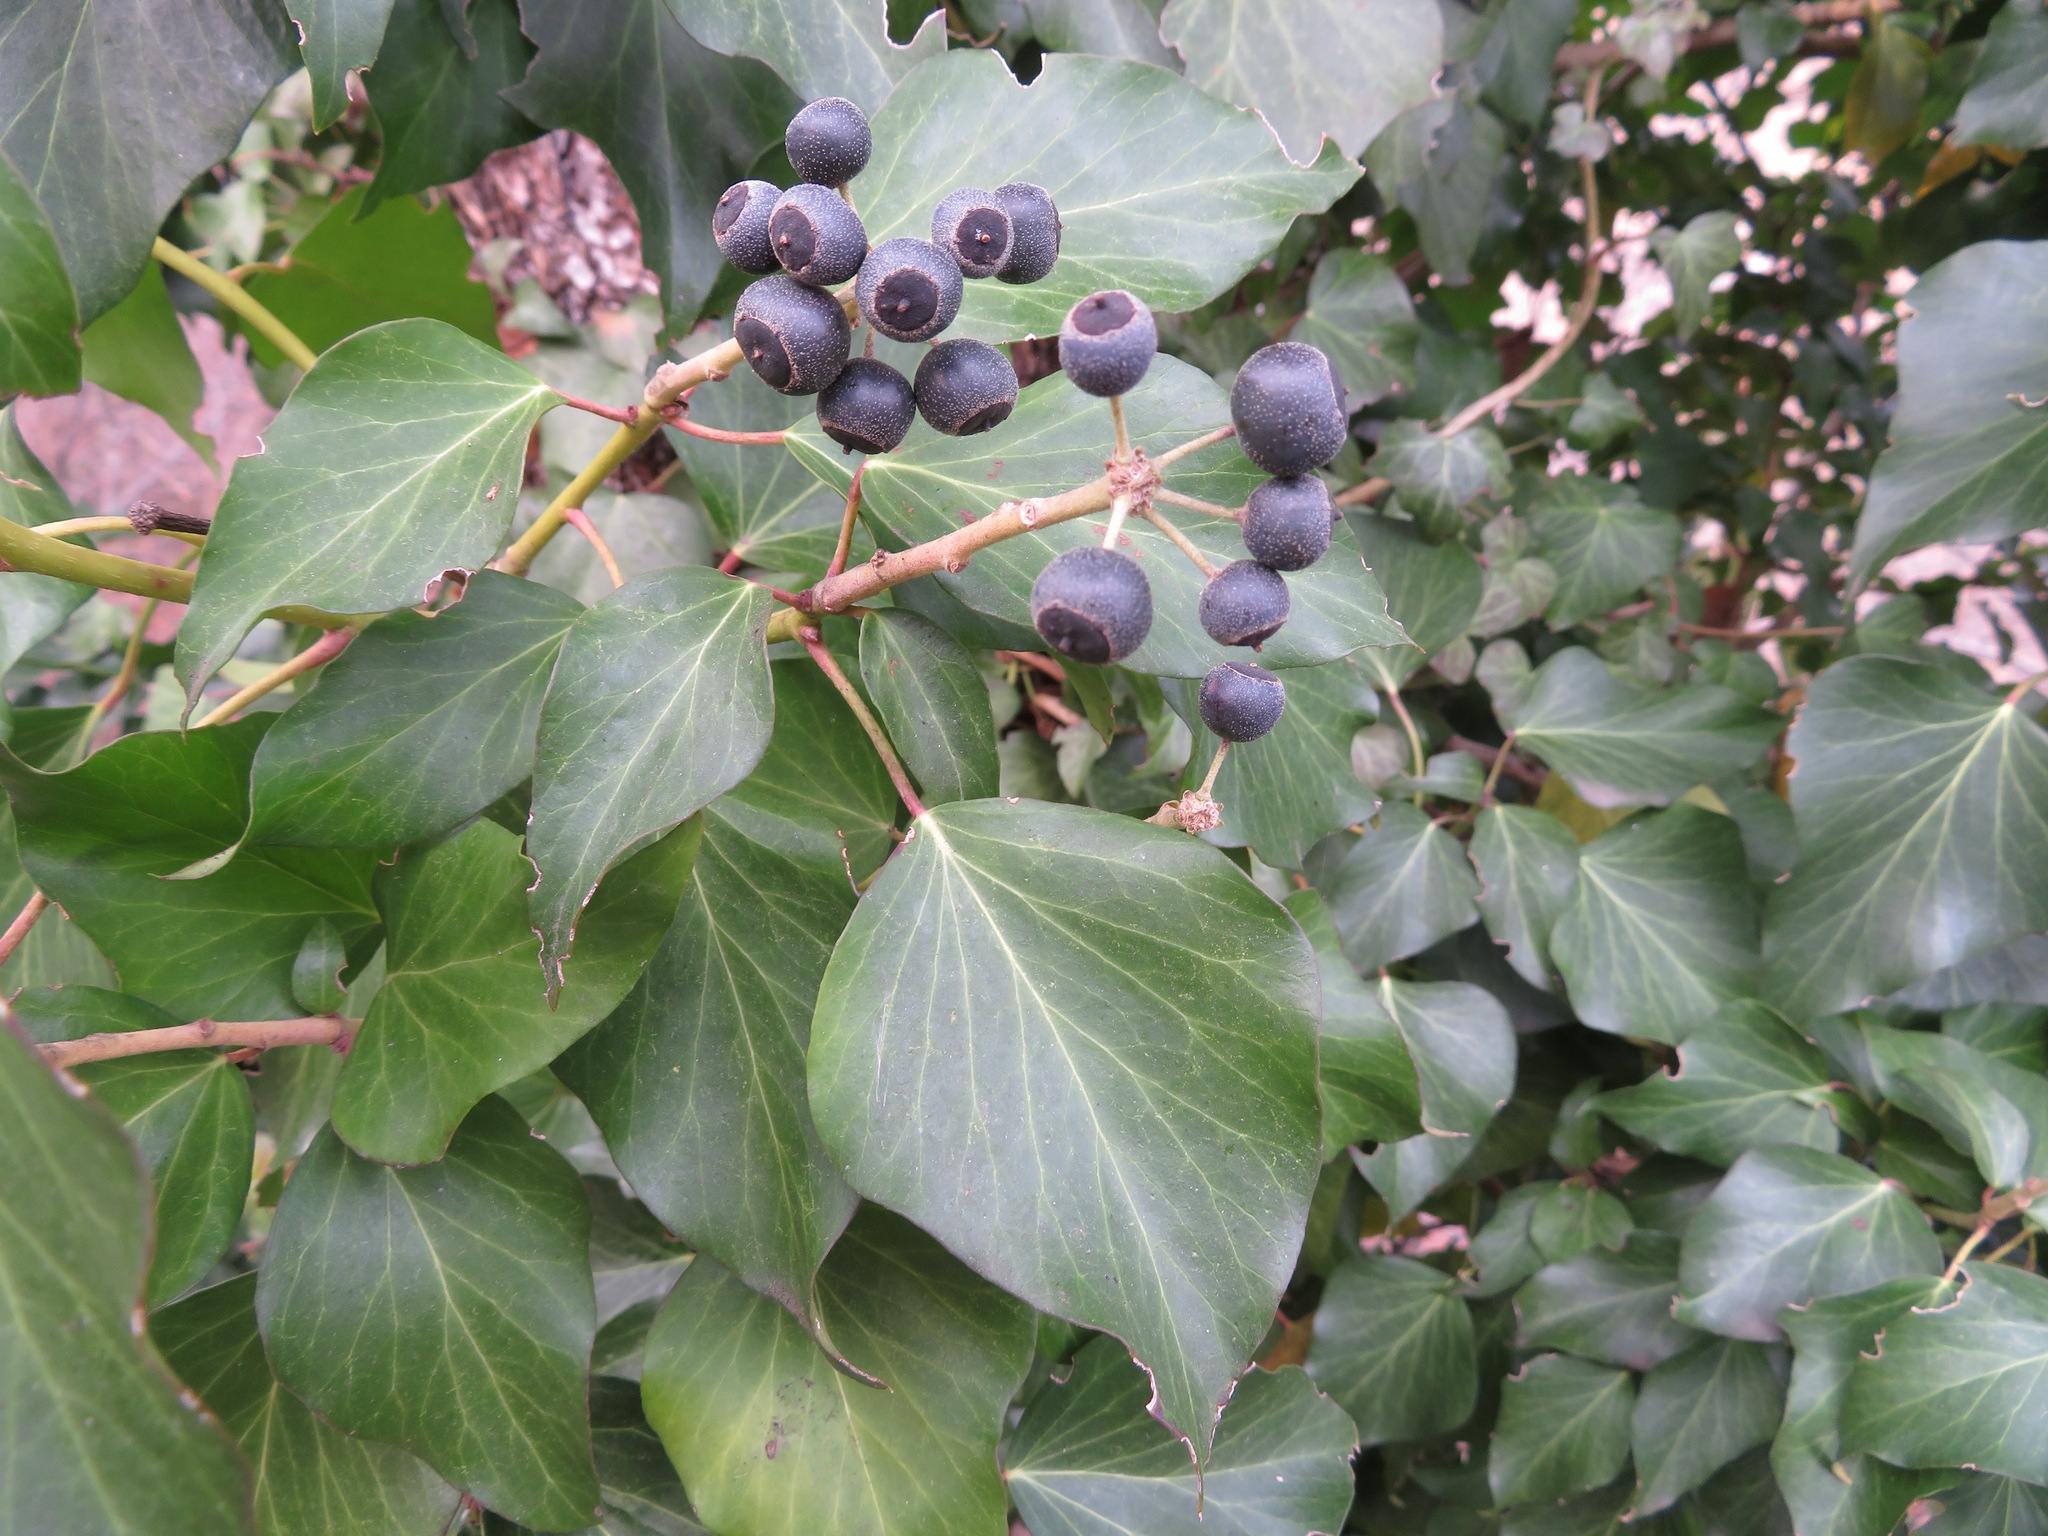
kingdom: Plantae
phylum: Tracheophyta
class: Magnoliopsida
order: Apiales
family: Araliaceae
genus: Hedera
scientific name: Hedera helix
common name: Ivy
